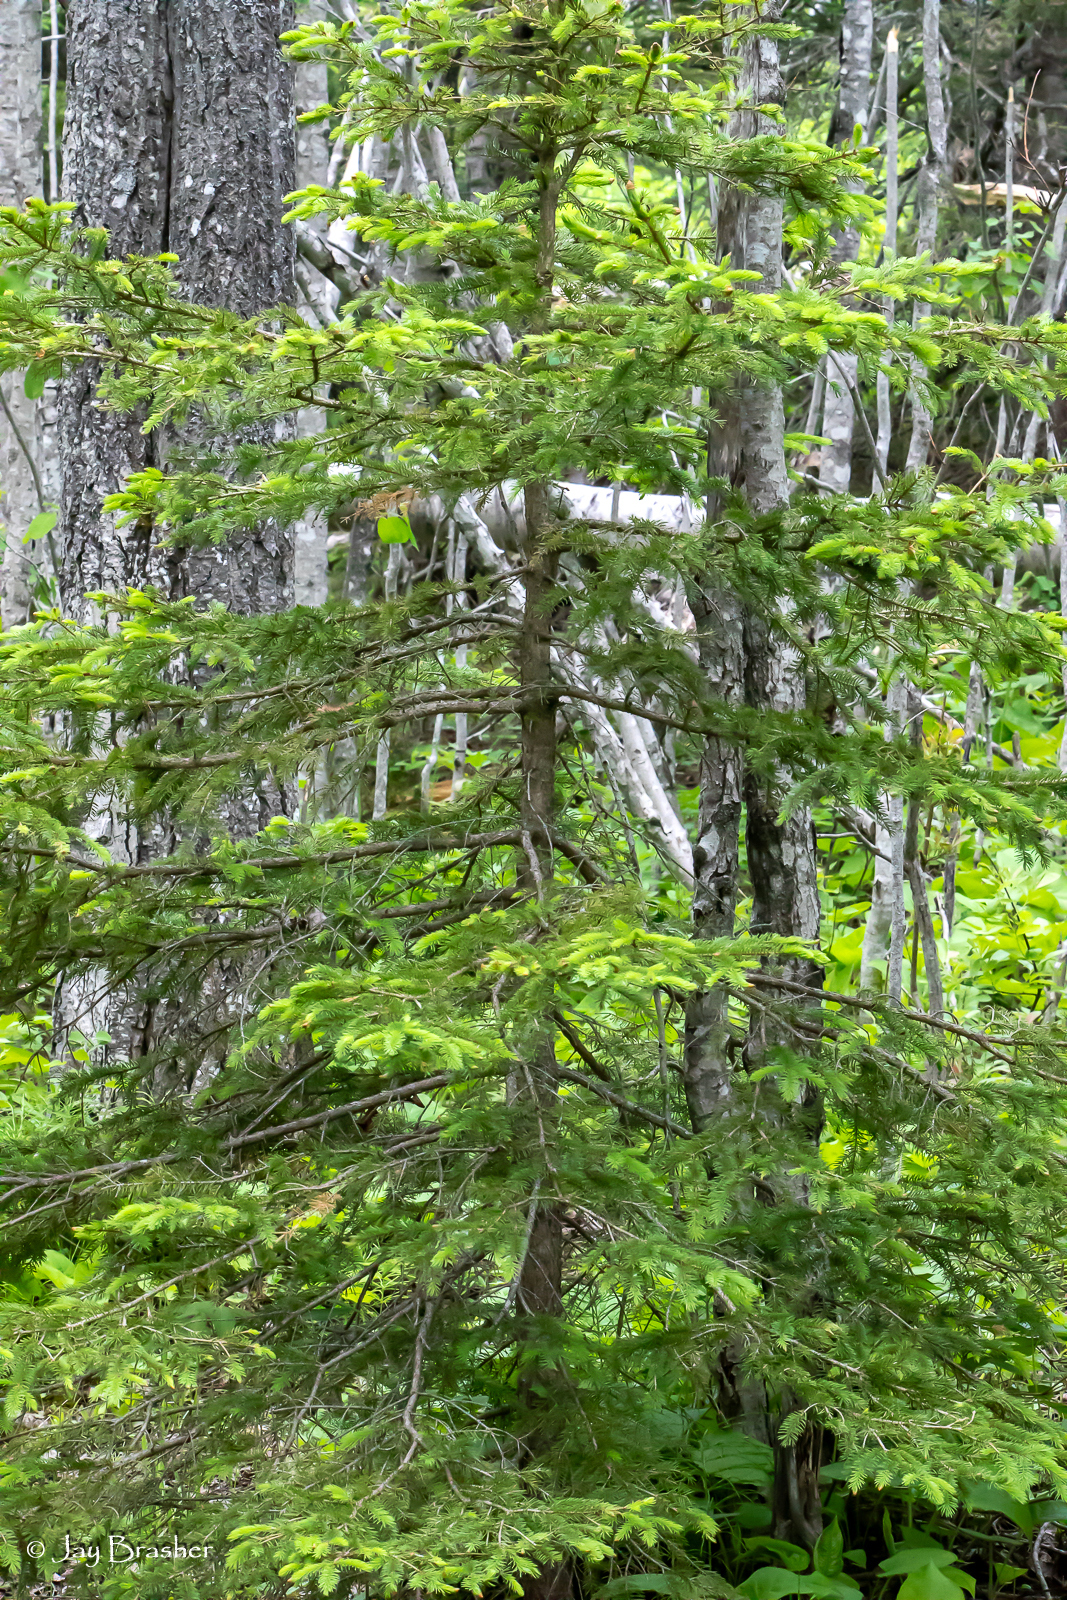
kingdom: Plantae
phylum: Tracheophyta
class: Pinopsida
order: Pinales
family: Pinaceae
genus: Picea
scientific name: Picea glauca
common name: White spruce
